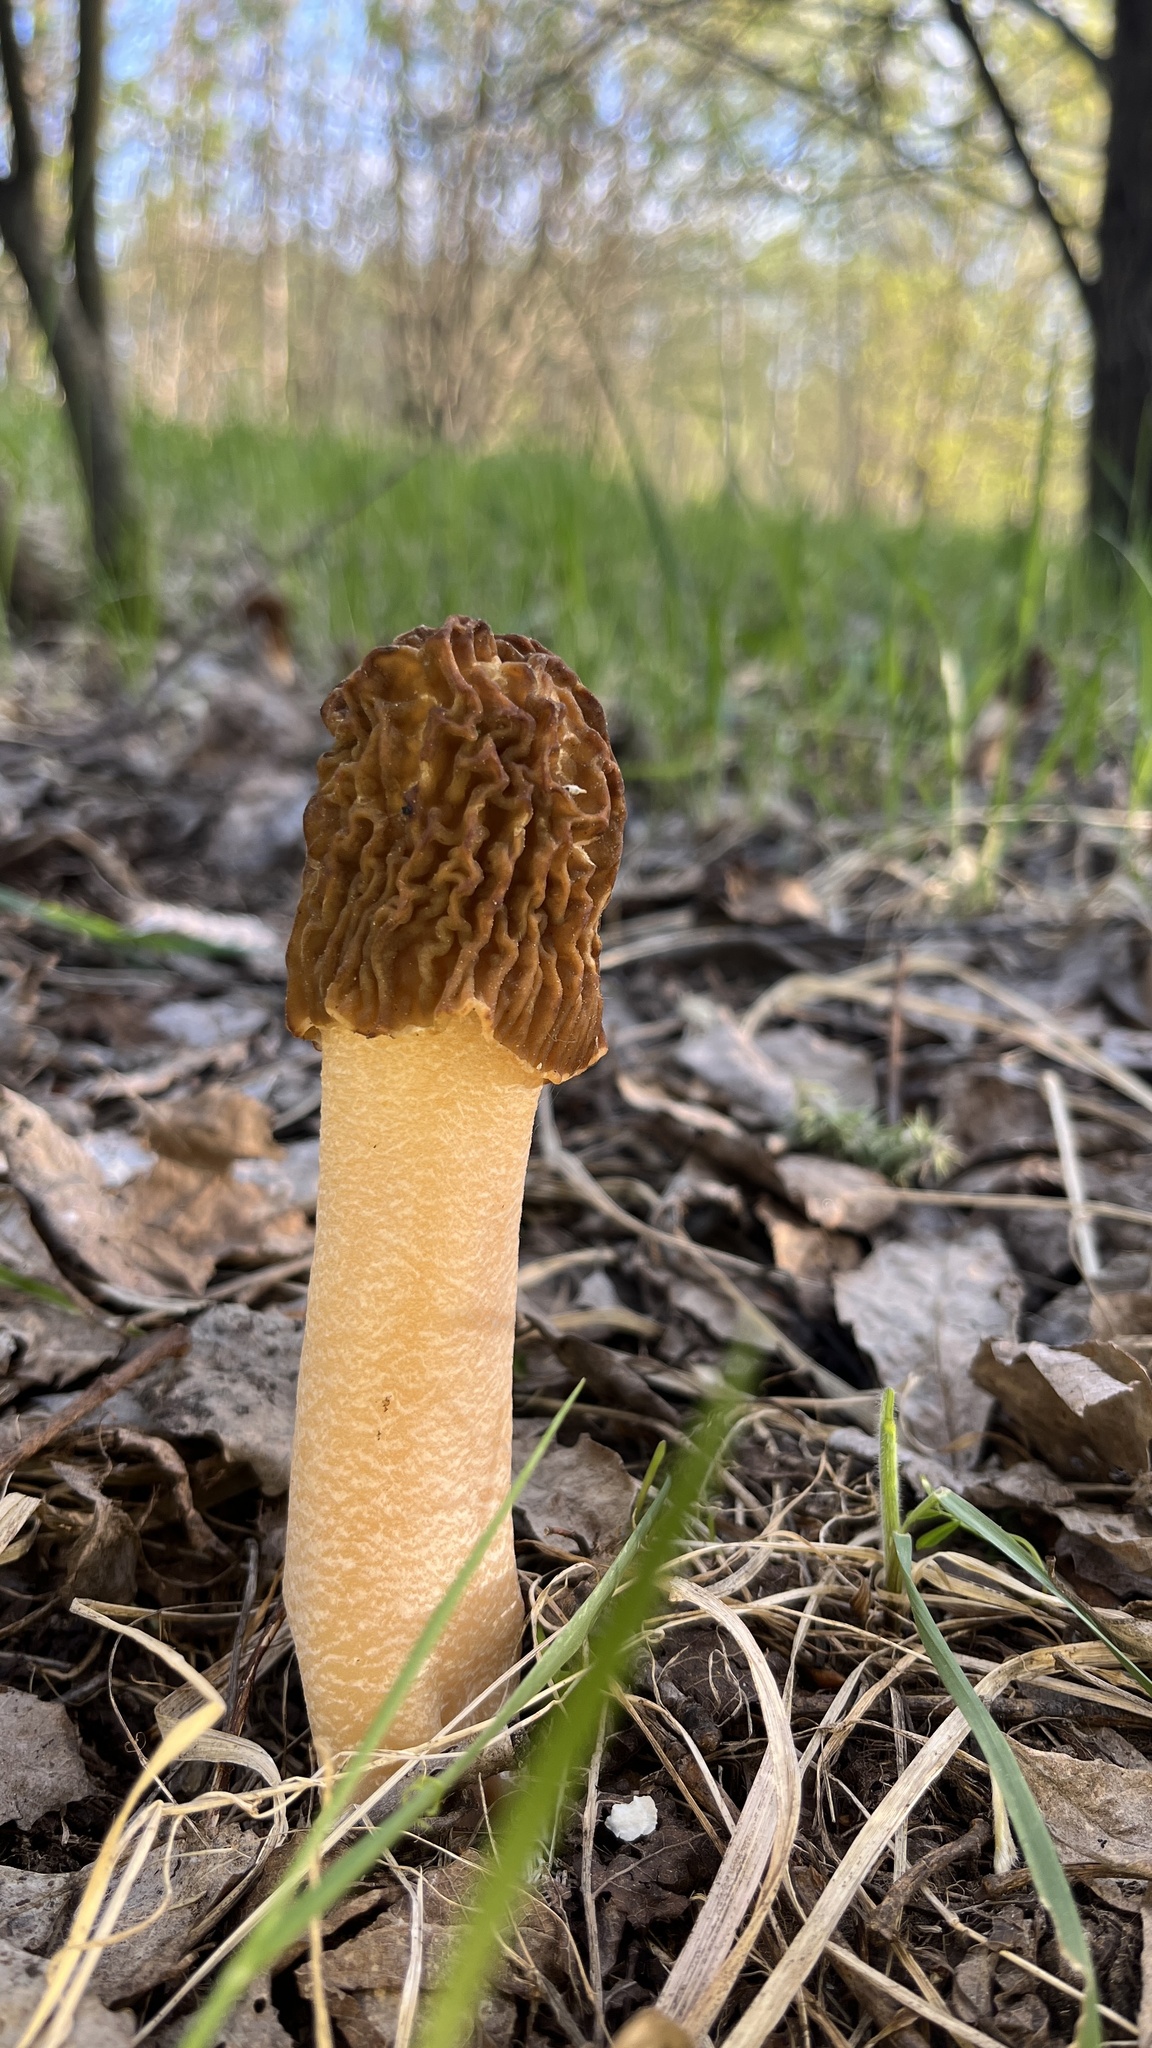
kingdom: Fungi
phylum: Ascomycota
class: Pezizomycetes
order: Pezizales
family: Morchellaceae
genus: Verpa
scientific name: Verpa bohemica
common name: Wrinkled thimble morel
